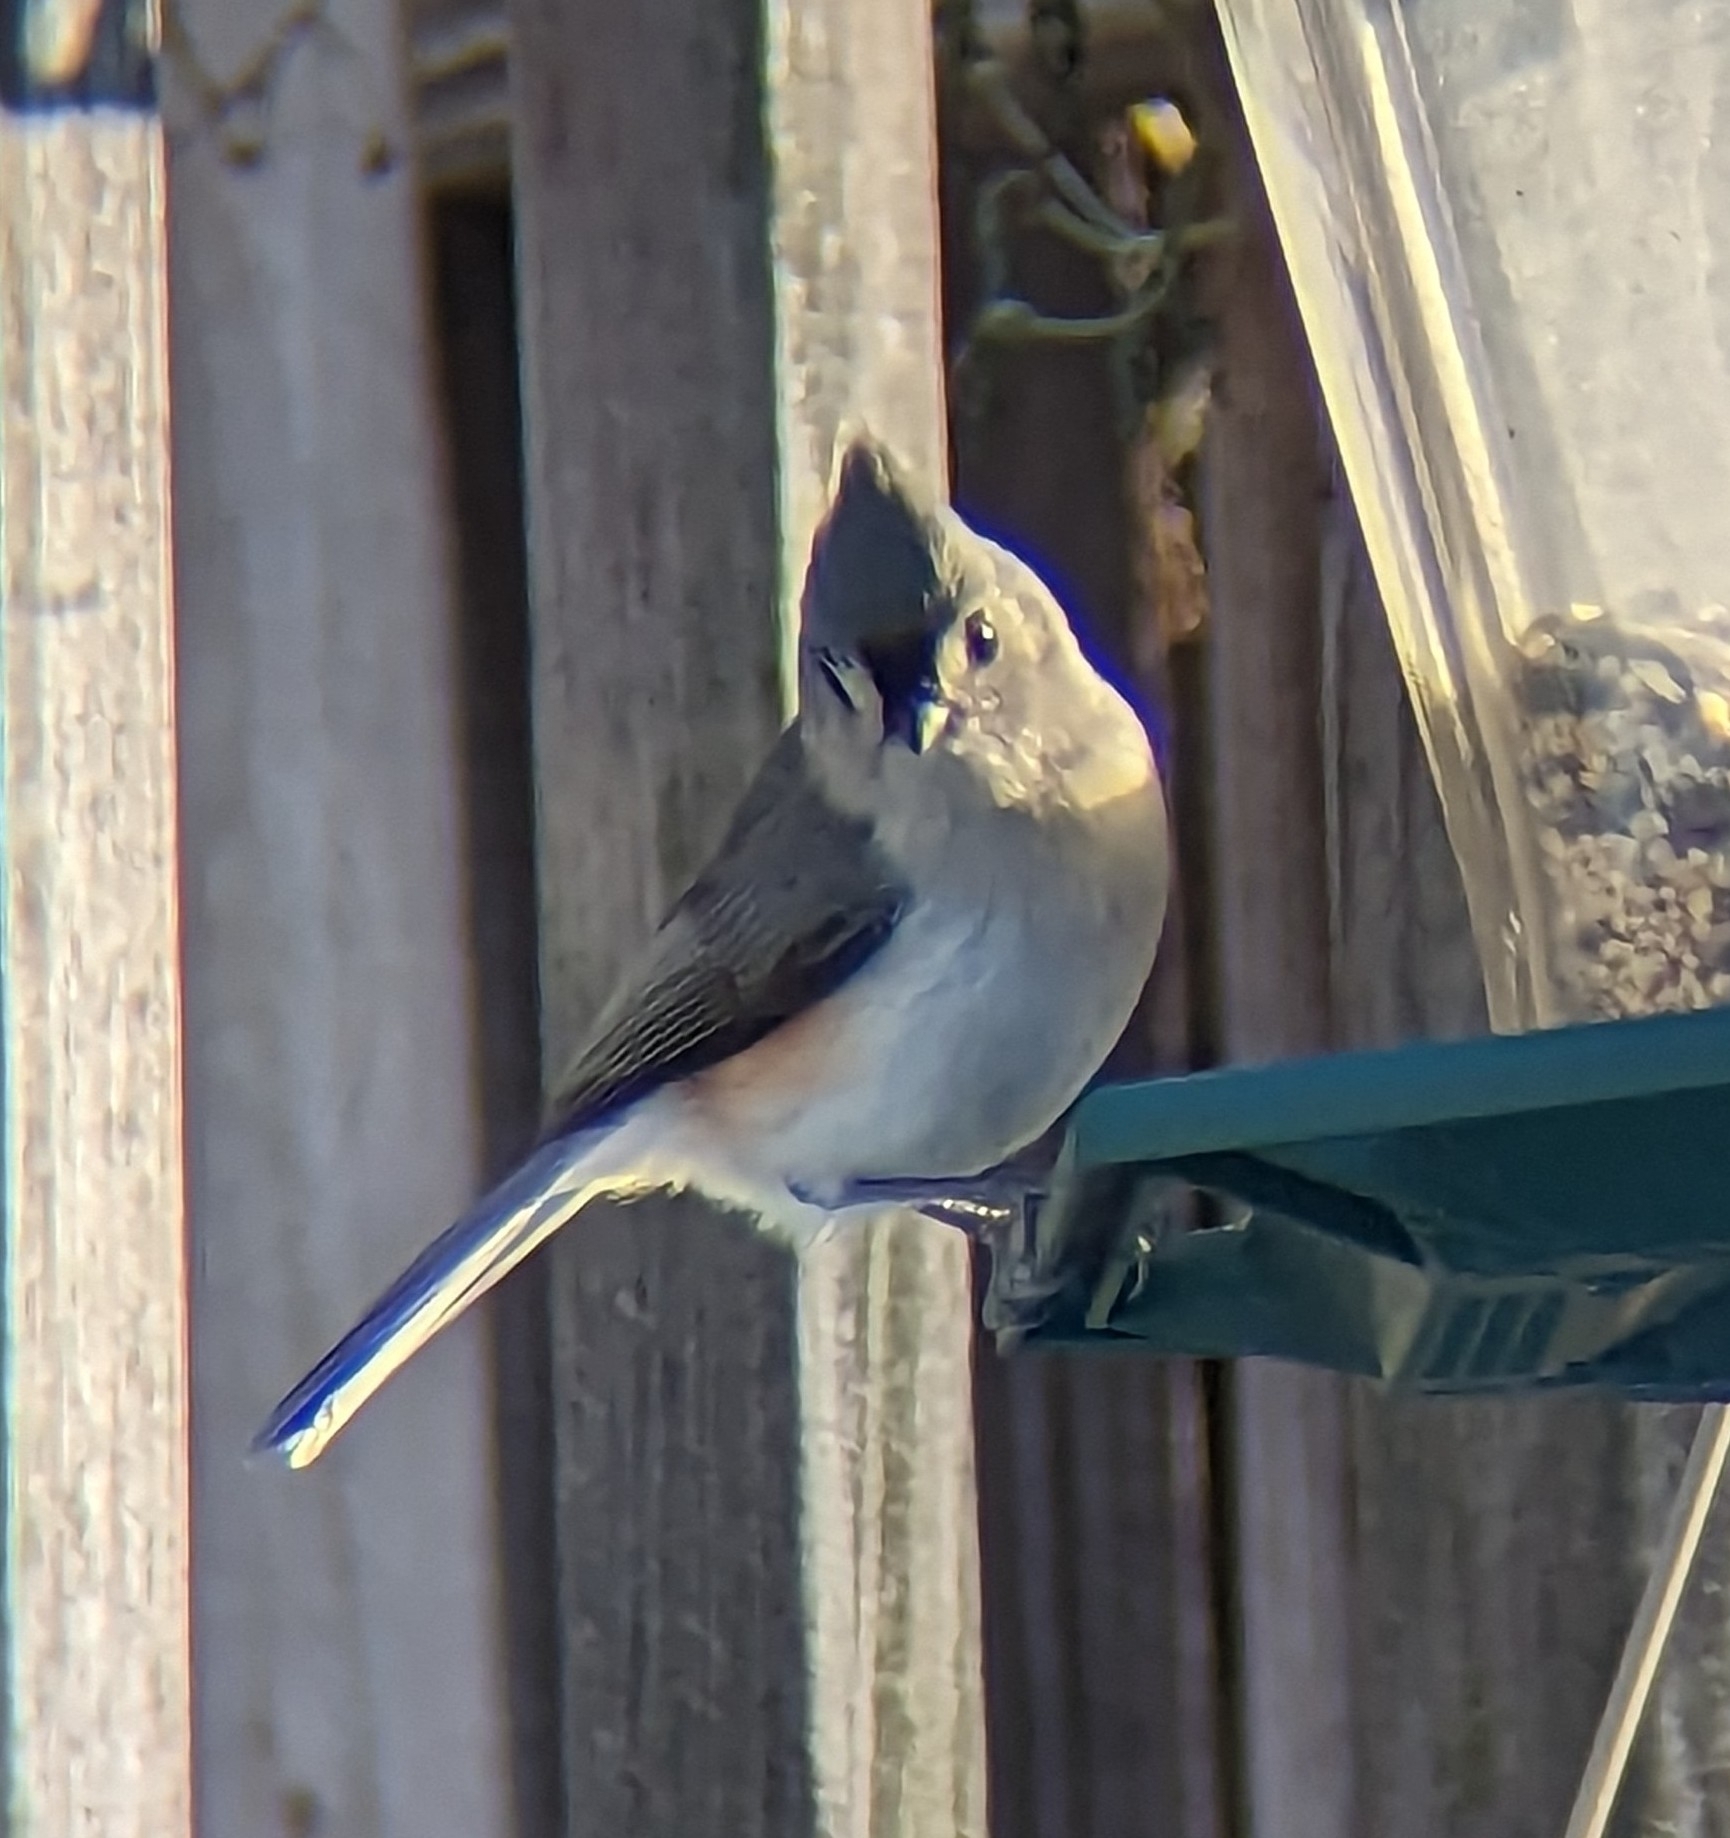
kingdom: Animalia
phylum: Chordata
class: Aves
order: Passeriformes
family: Paridae
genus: Baeolophus
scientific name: Baeolophus bicolor
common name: Tufted titmouse
